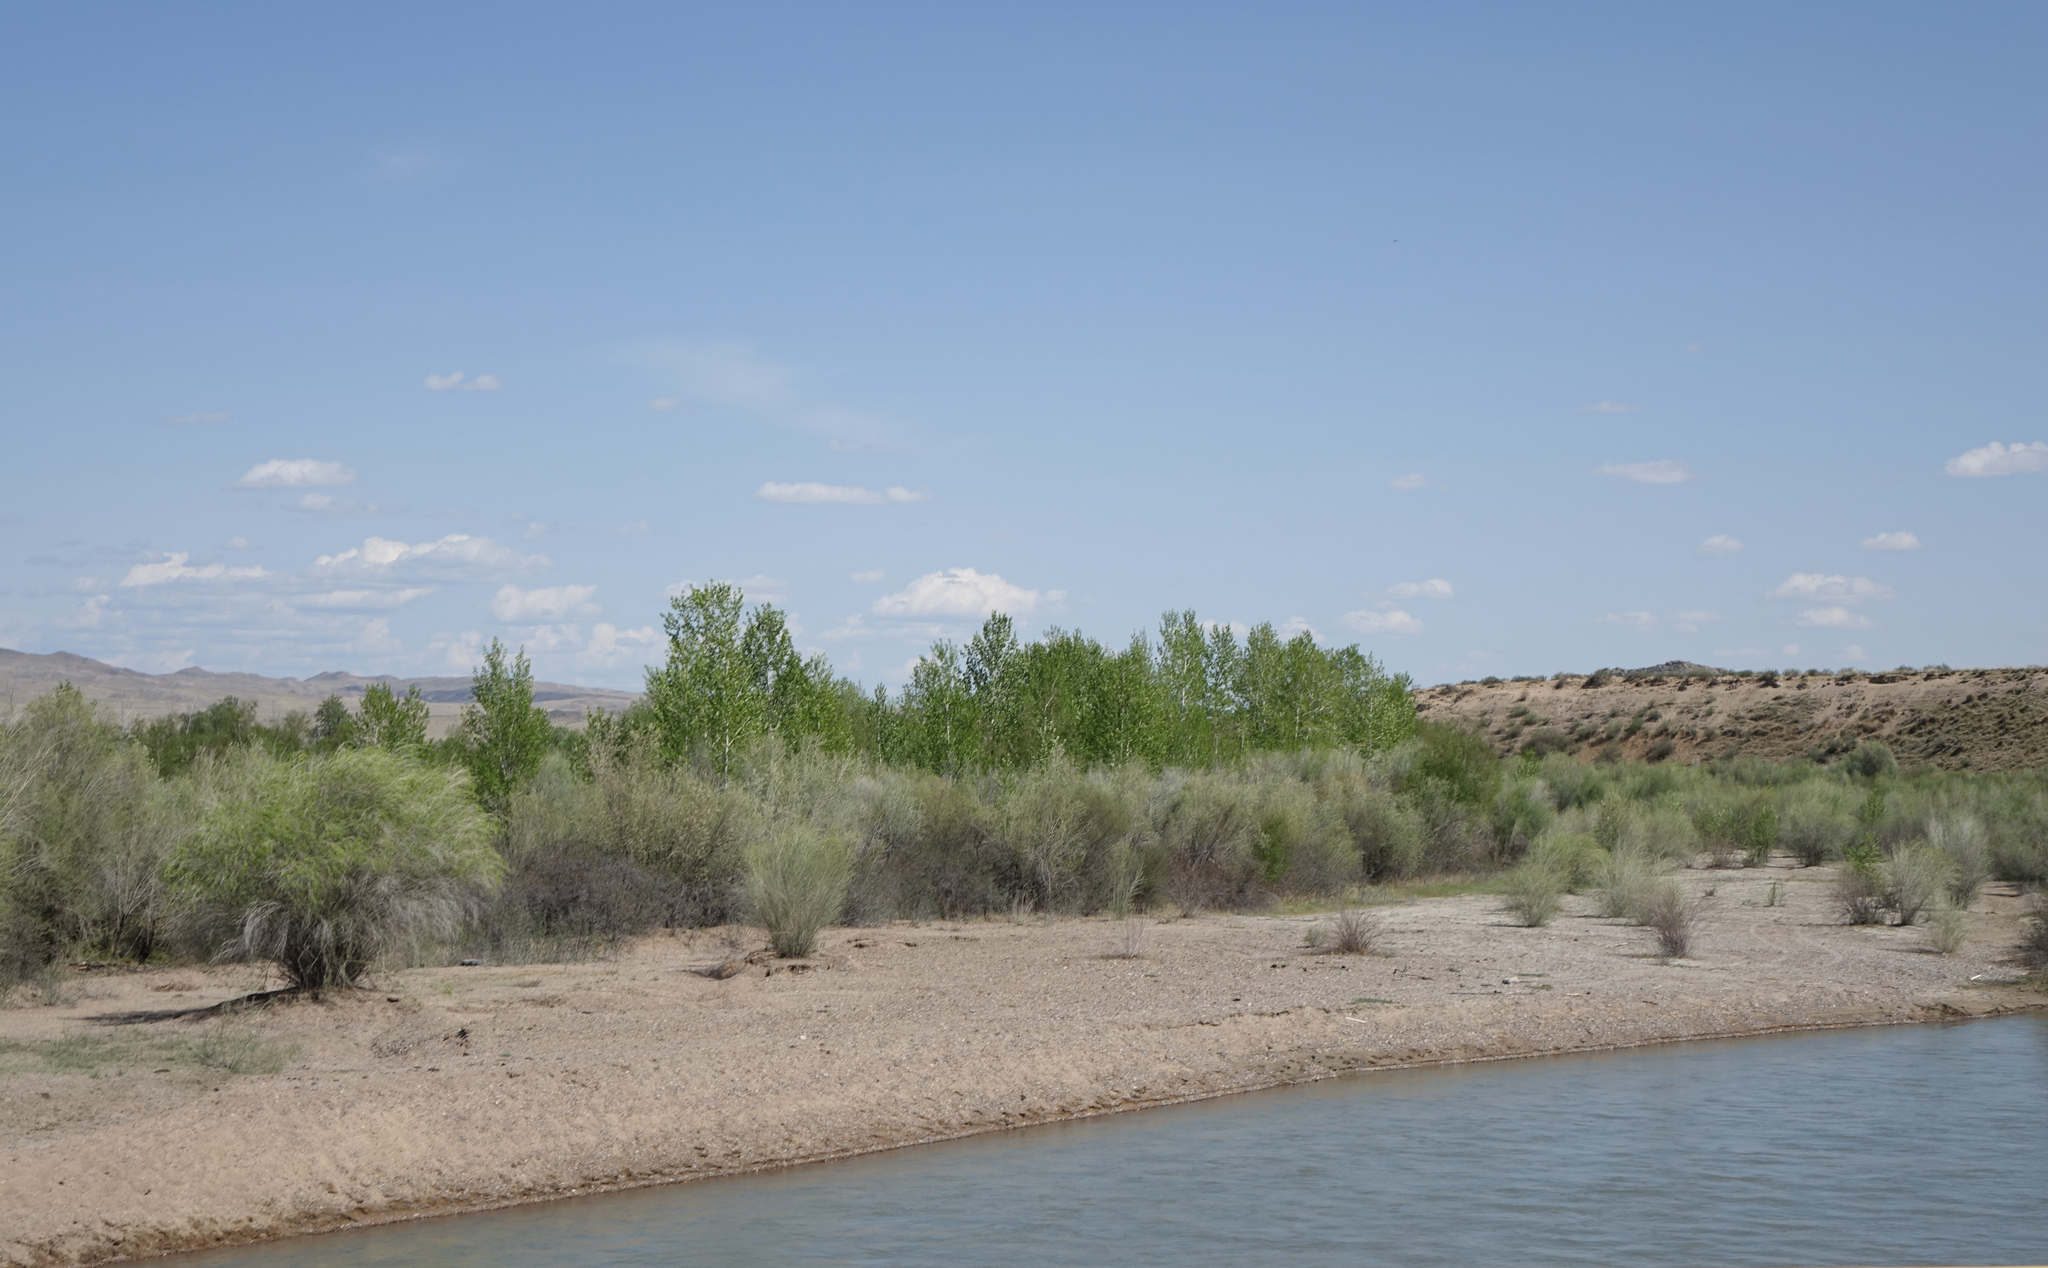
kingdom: Plantae
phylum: Tracheophyta
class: Magnoliopsida
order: Malpighiales
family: Salicaceae
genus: Populus
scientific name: Populus laurifolia
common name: Laurel-leaf poplar
